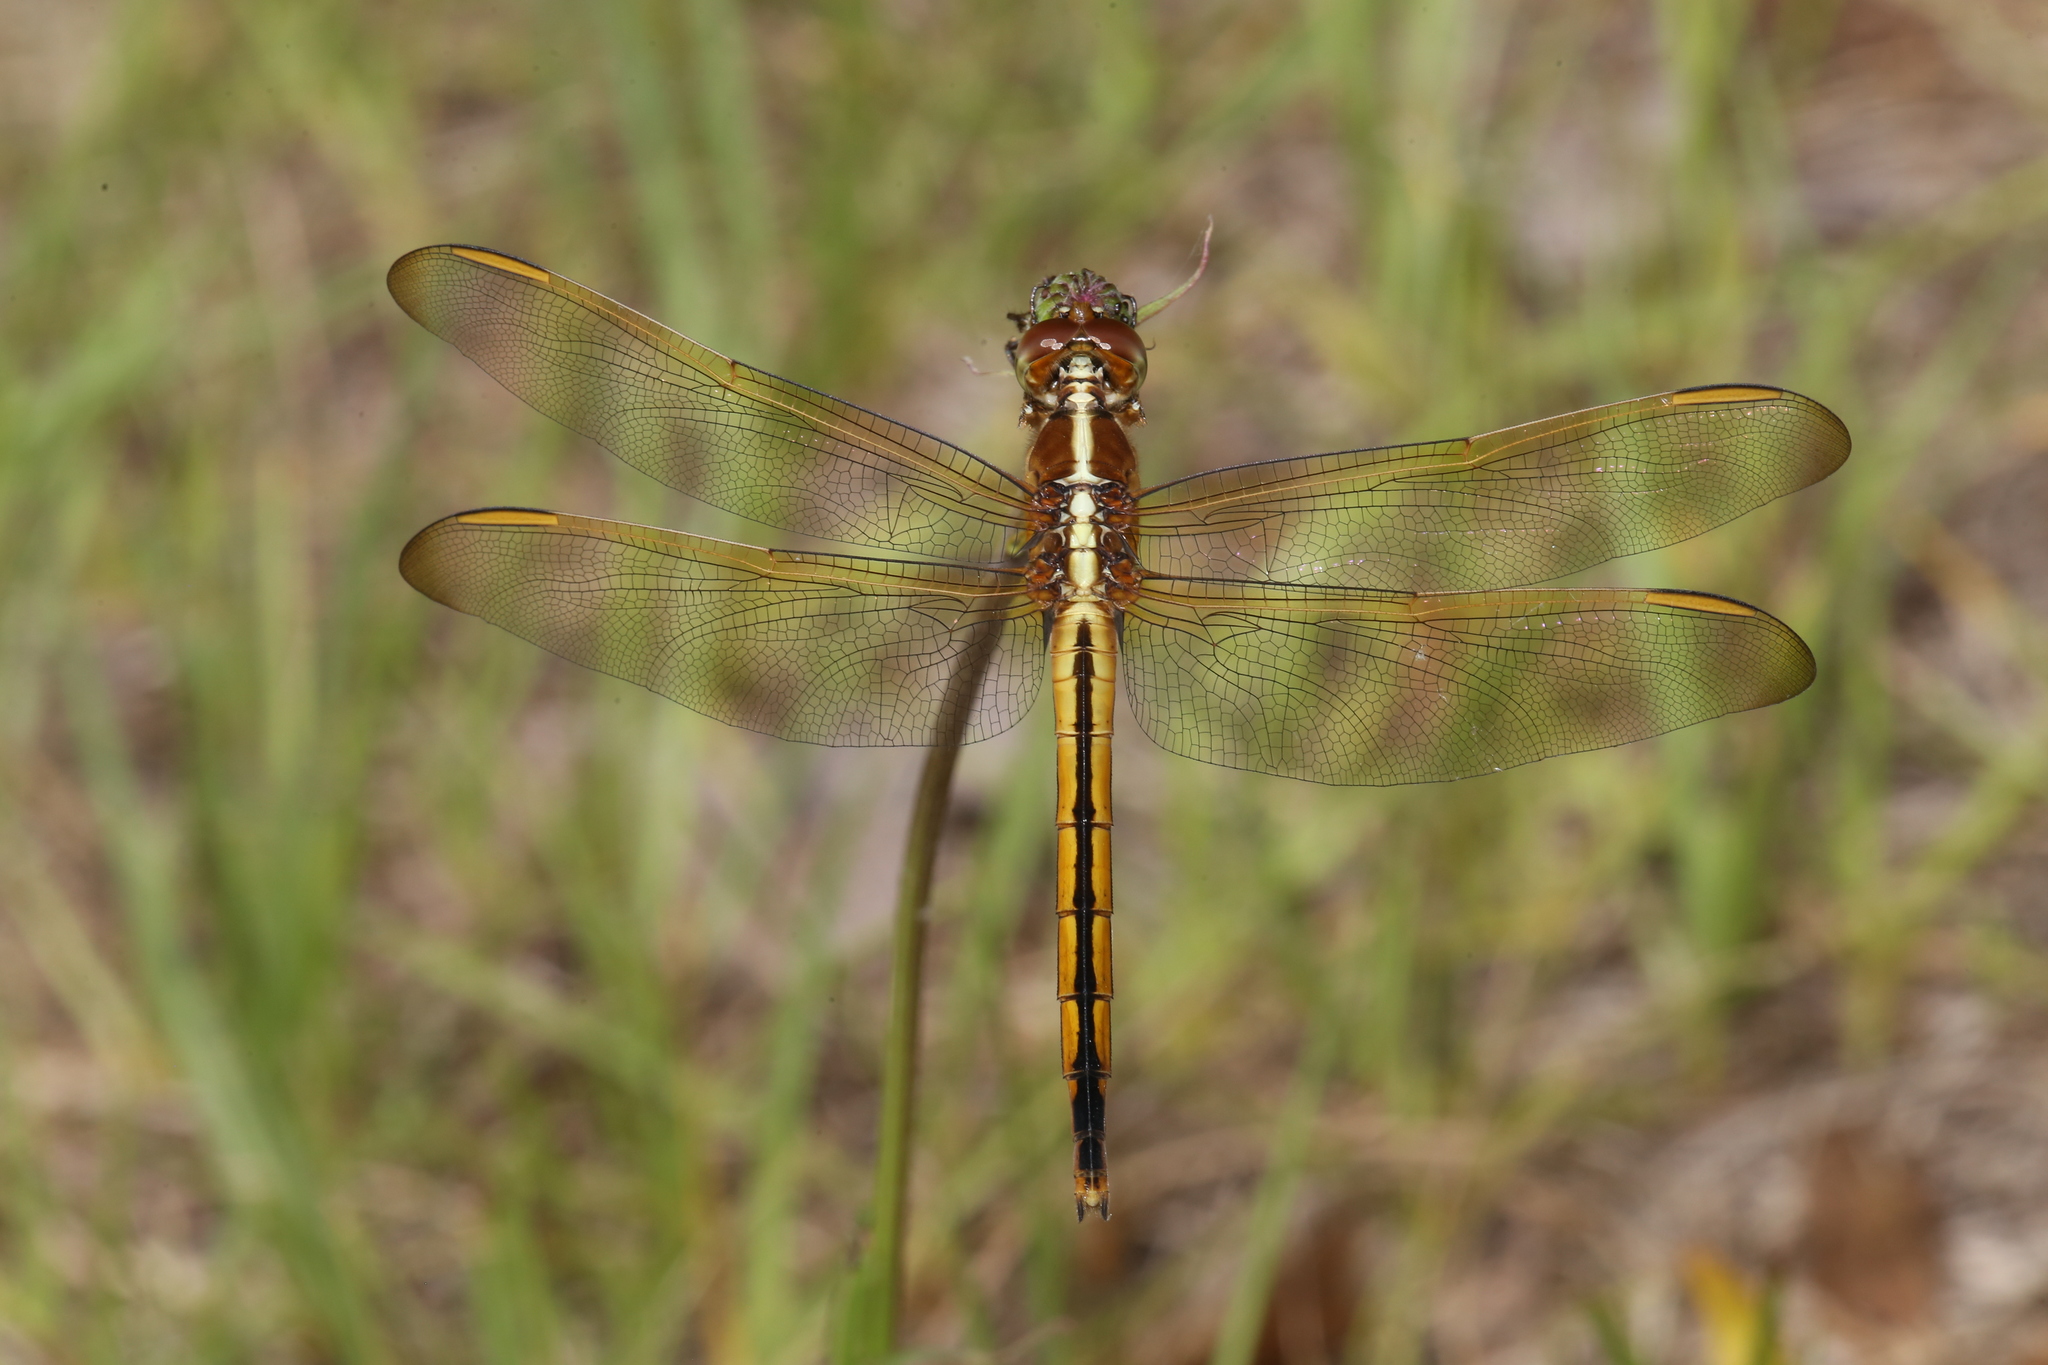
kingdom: Animalia
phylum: Arthropoda
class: Insecta
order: Odonata
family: Libellulidae
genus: Libellula
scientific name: Libellula needhami
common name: Needham's skimmer
